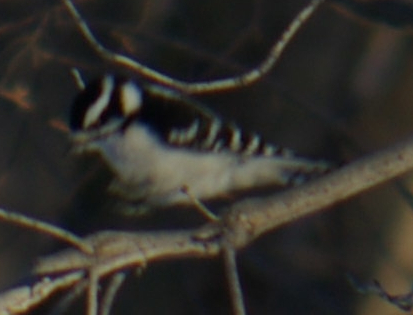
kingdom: Animalia
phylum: Chordata
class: Aves
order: Piciformes
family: Picidae
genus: Dryobates
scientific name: Dryobates pubescens
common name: Downy woodpecker
